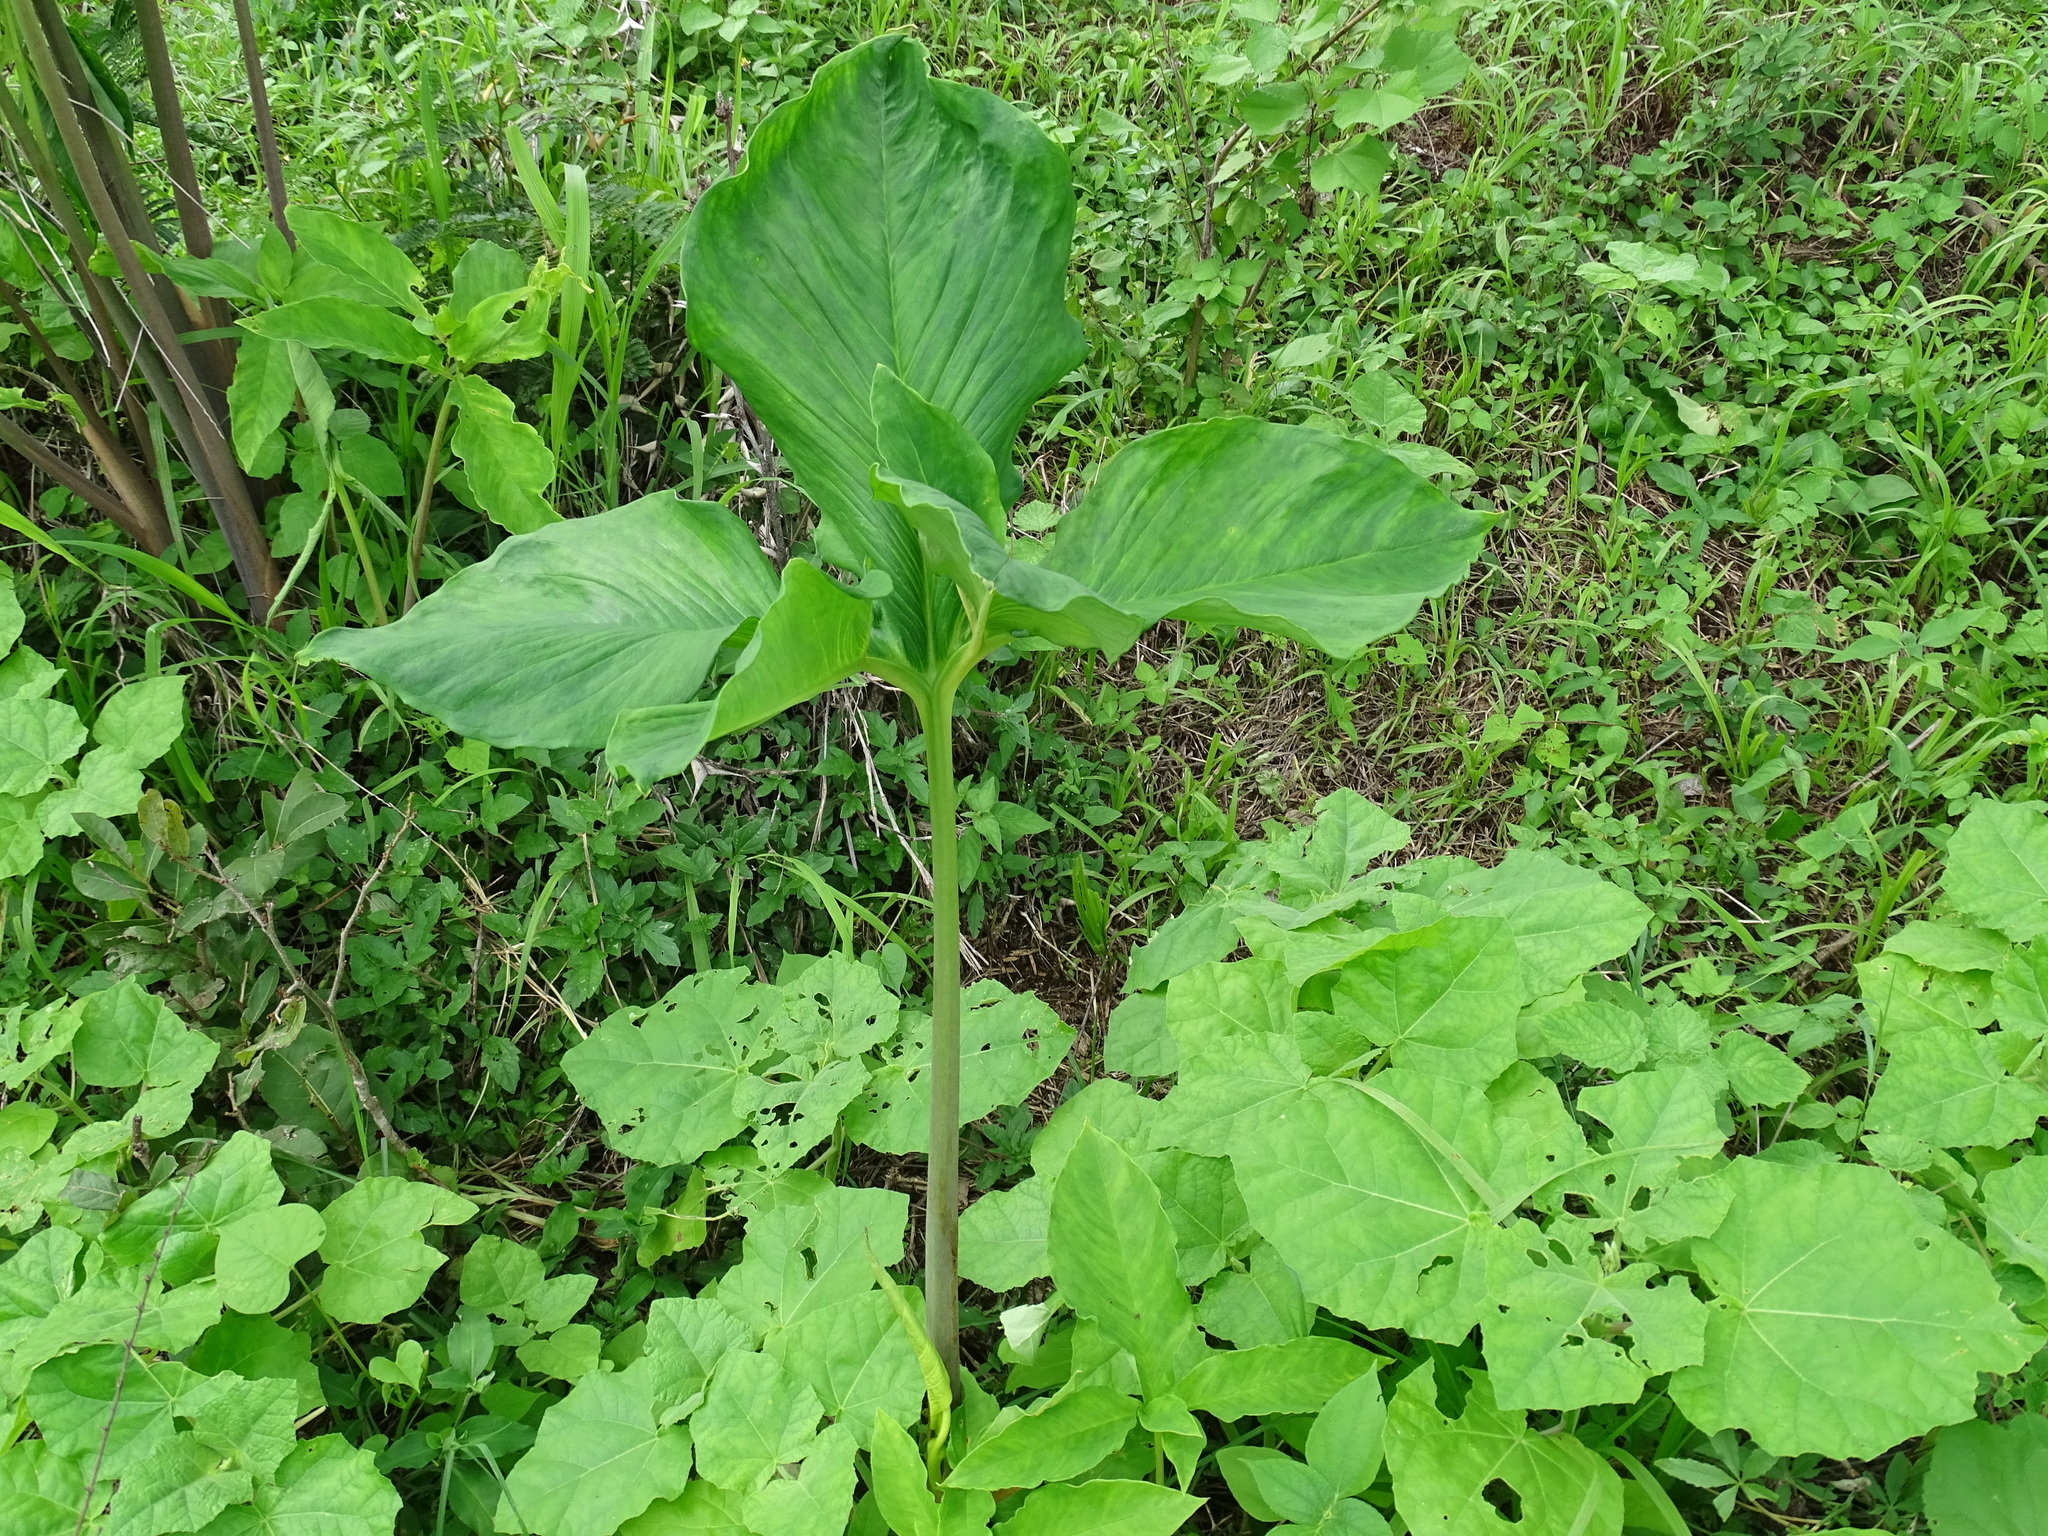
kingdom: Plantae
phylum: Tracheophyta
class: Liliopsida
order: Alismatales
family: Araceae
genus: Xanthosoma
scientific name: Xanthosoma wendlandii
